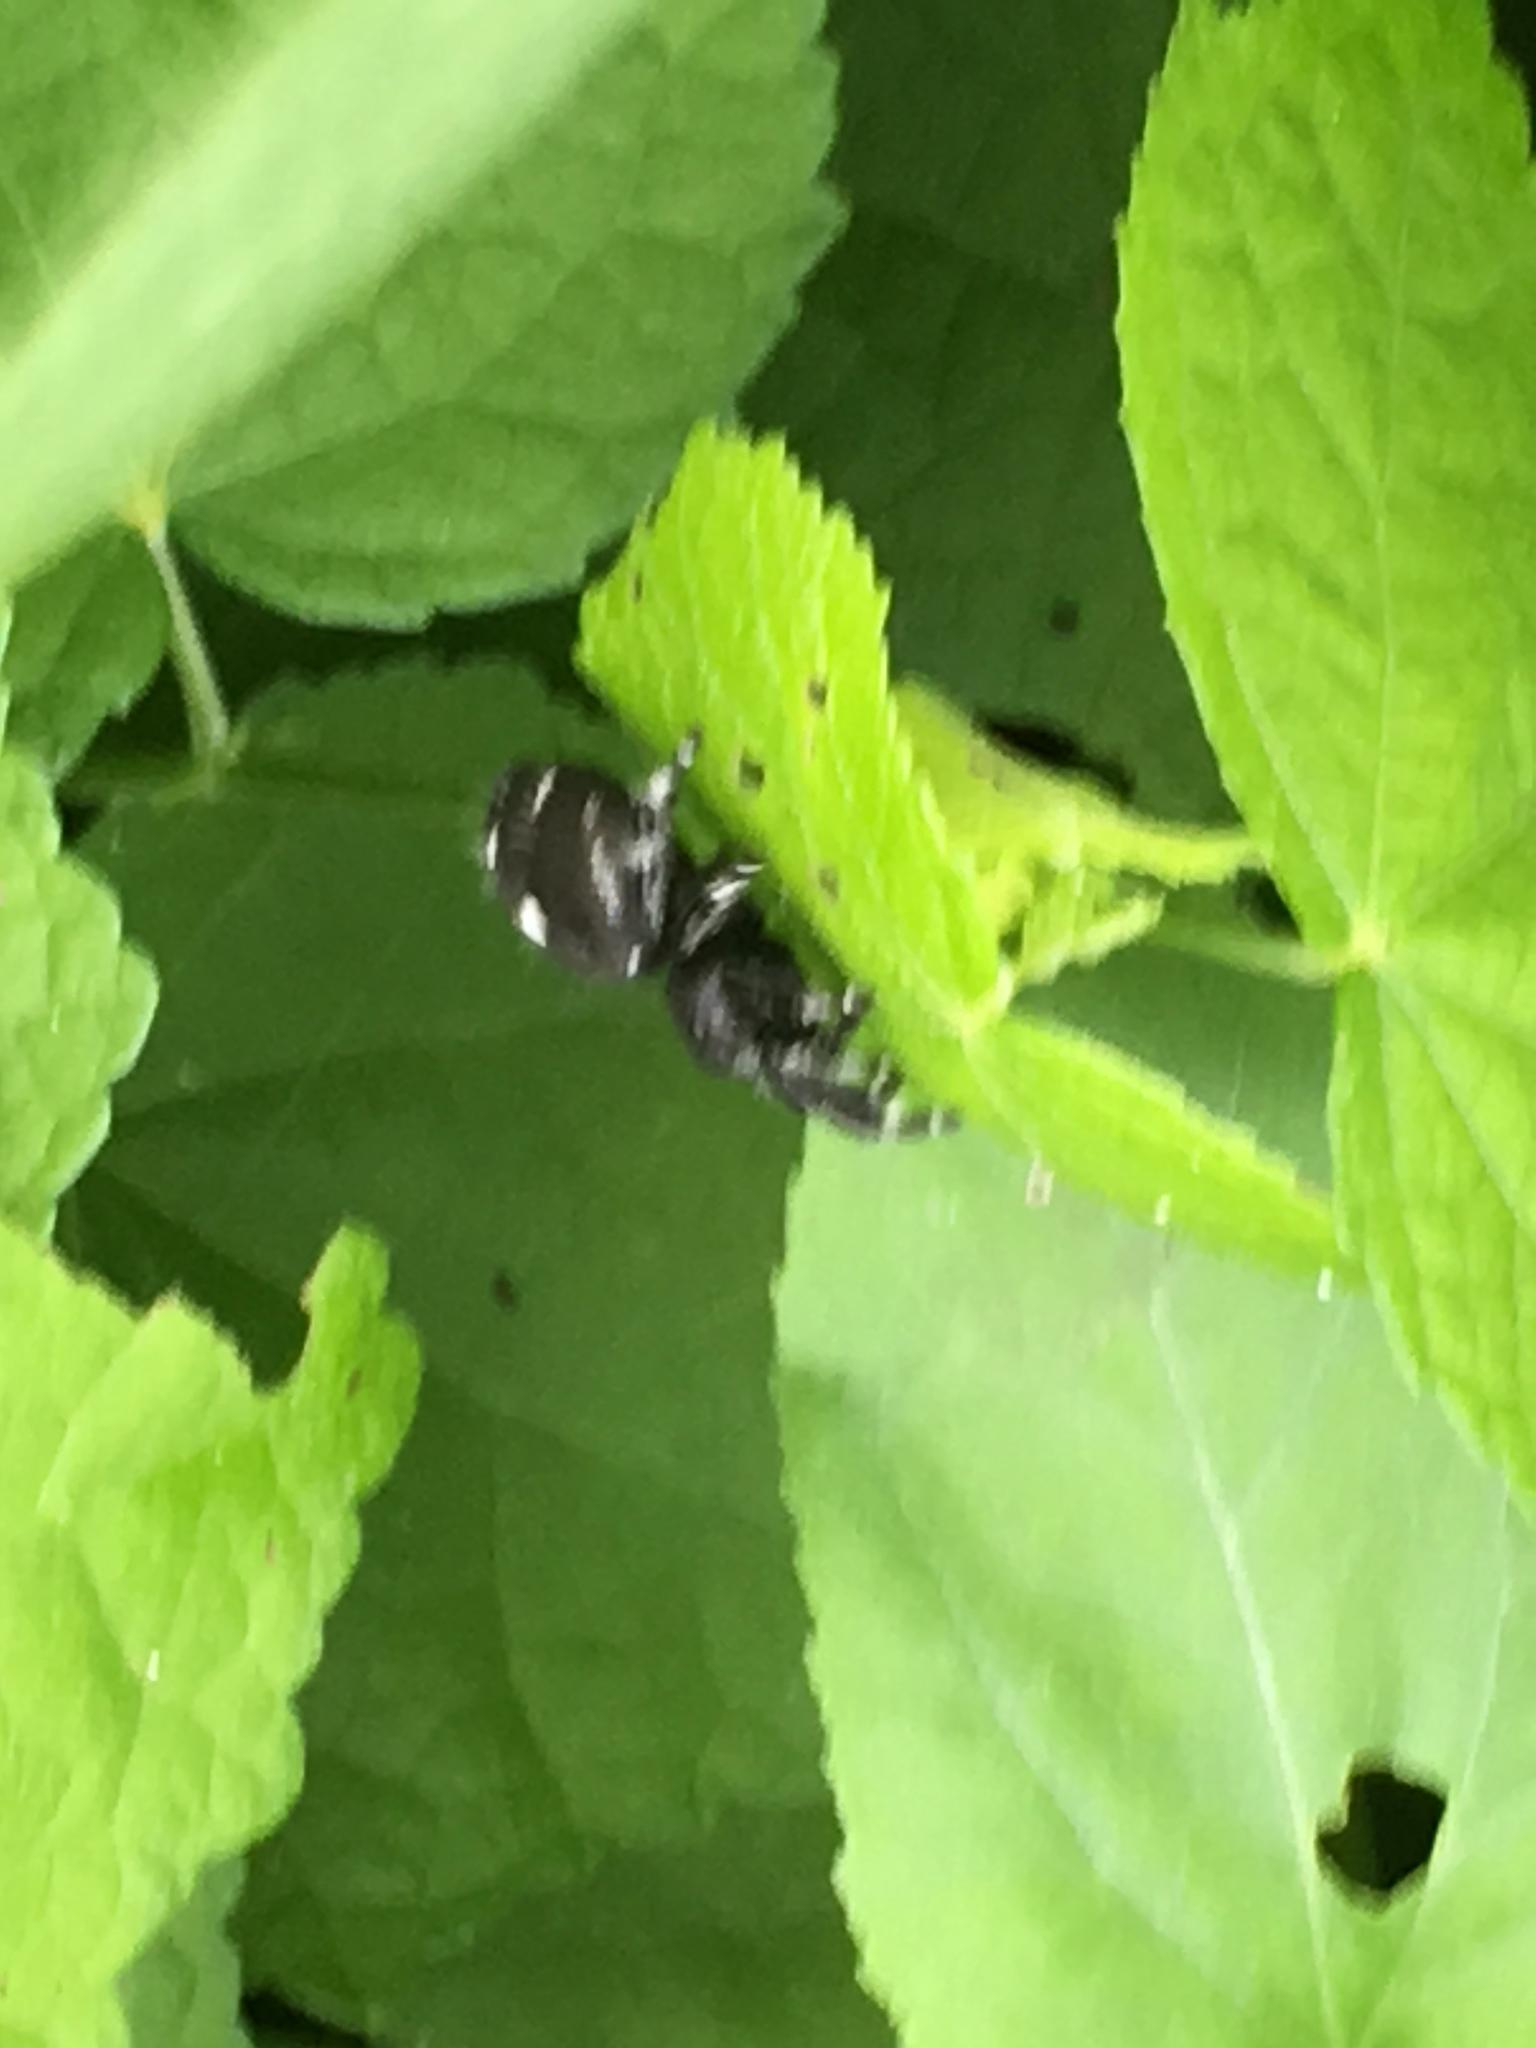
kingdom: Animalia
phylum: Arthropoda
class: Arachnida
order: Araneae
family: Salticidae
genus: Phidippus
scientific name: Phidippus audax
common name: Bold jumper
